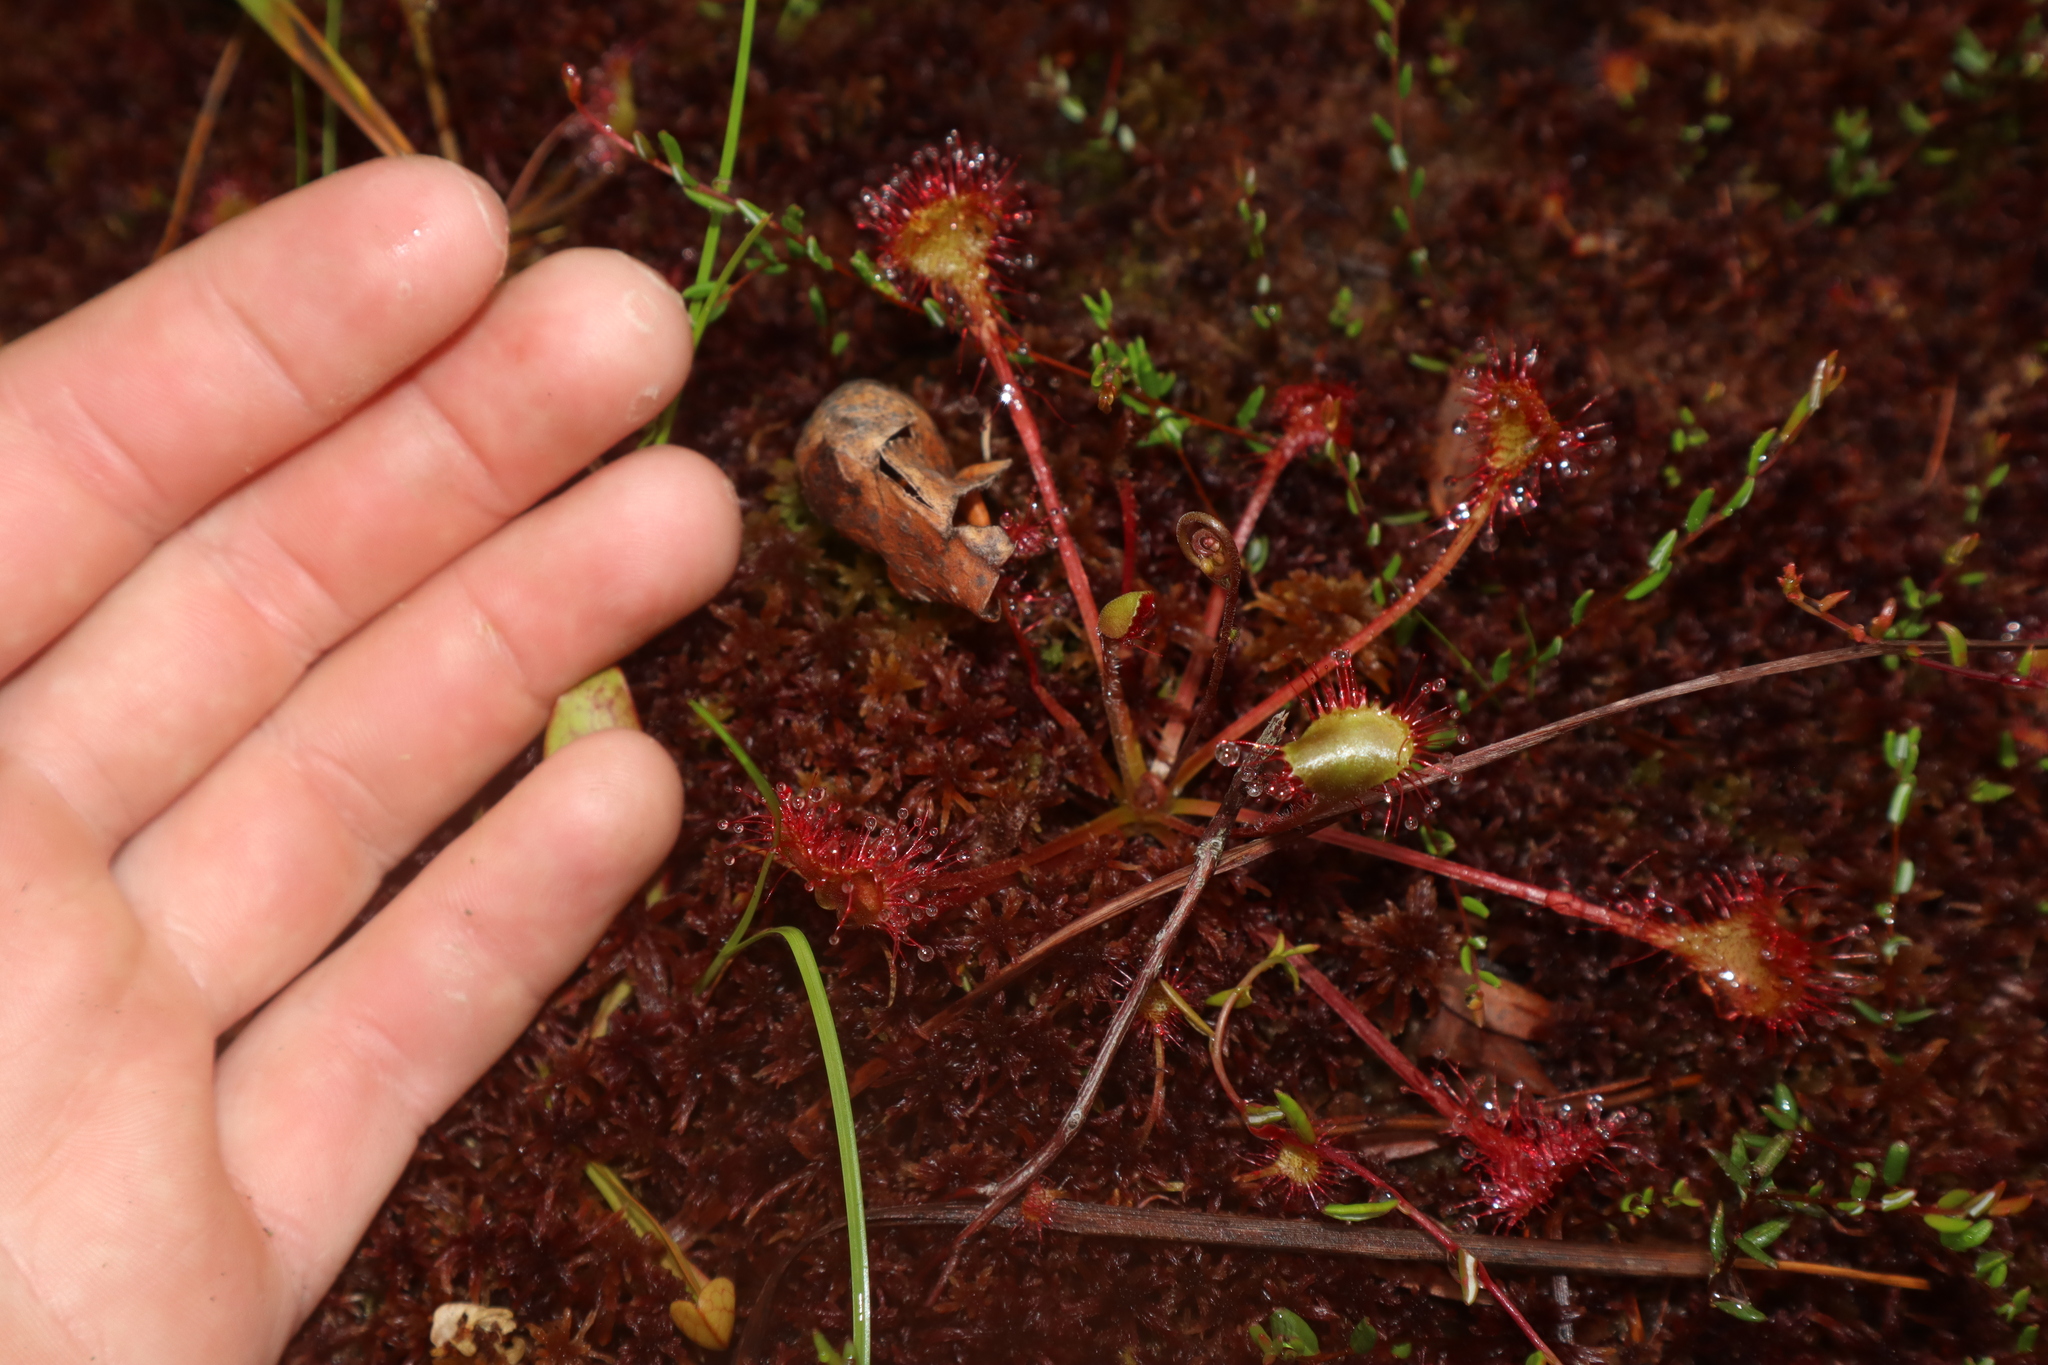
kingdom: Plantae
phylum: Tracheophyta
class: Magnoliopsida
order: Caryophyllales
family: Droseraceae
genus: Drosera
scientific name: Drosera rotundifolia
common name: Round-leaved sundew
